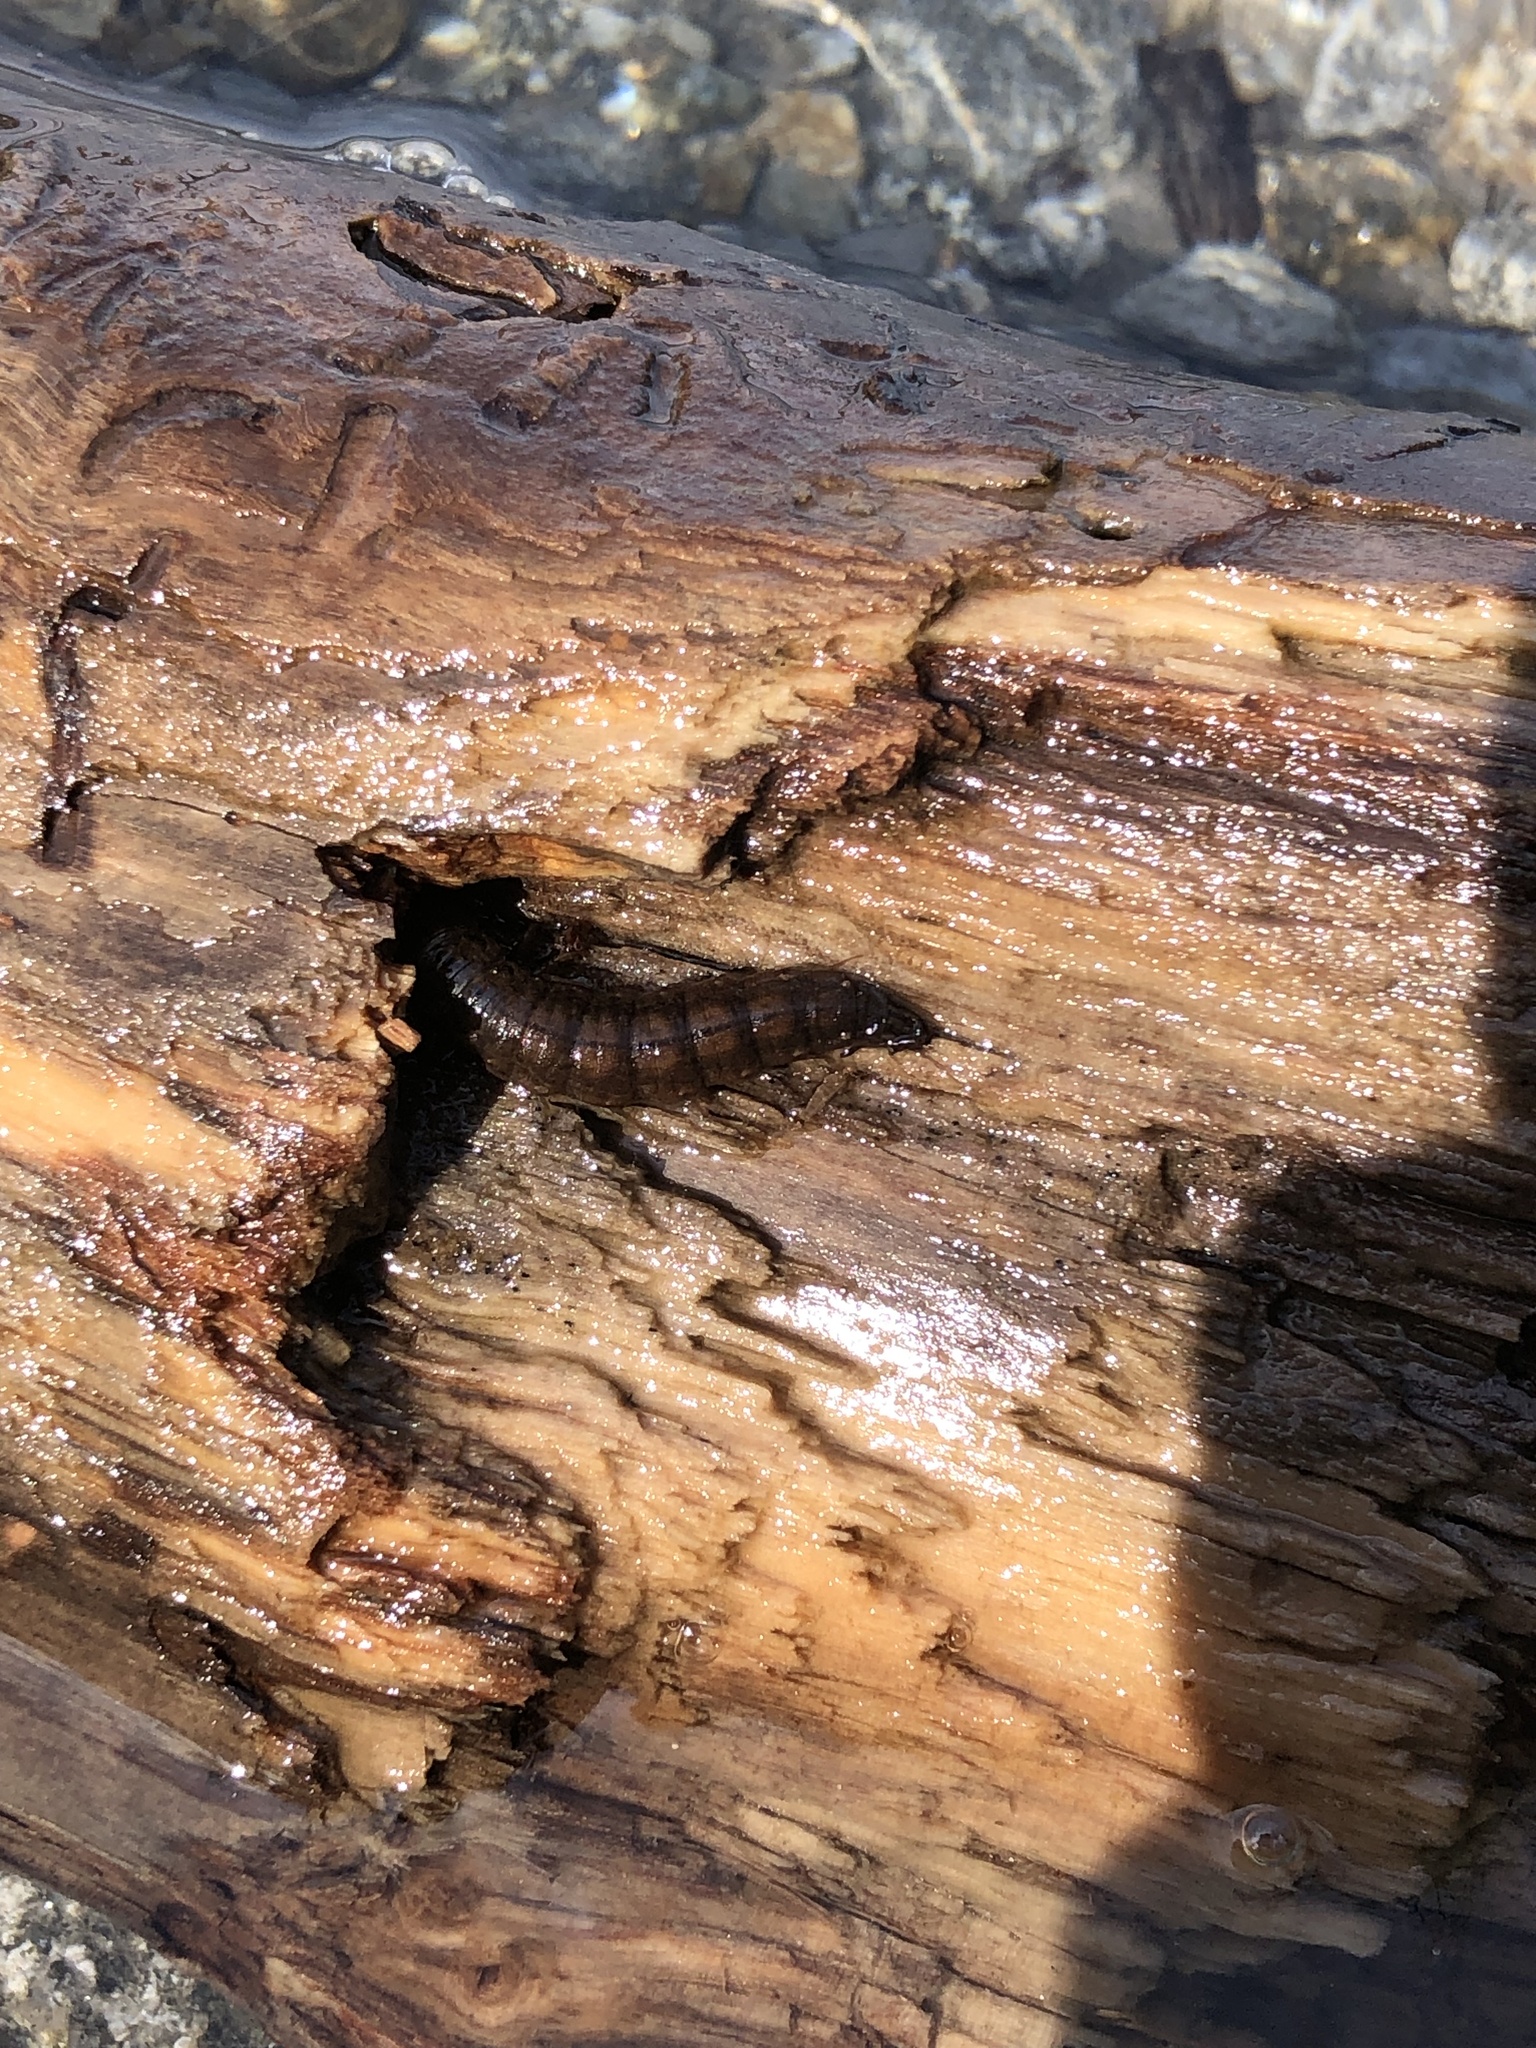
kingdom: Animalia
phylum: Arthropoda
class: Insecta
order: Megaloptera
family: Corydalidae
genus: Chauliodes
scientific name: Chauliodes rastricornis
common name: Spring fishfly
